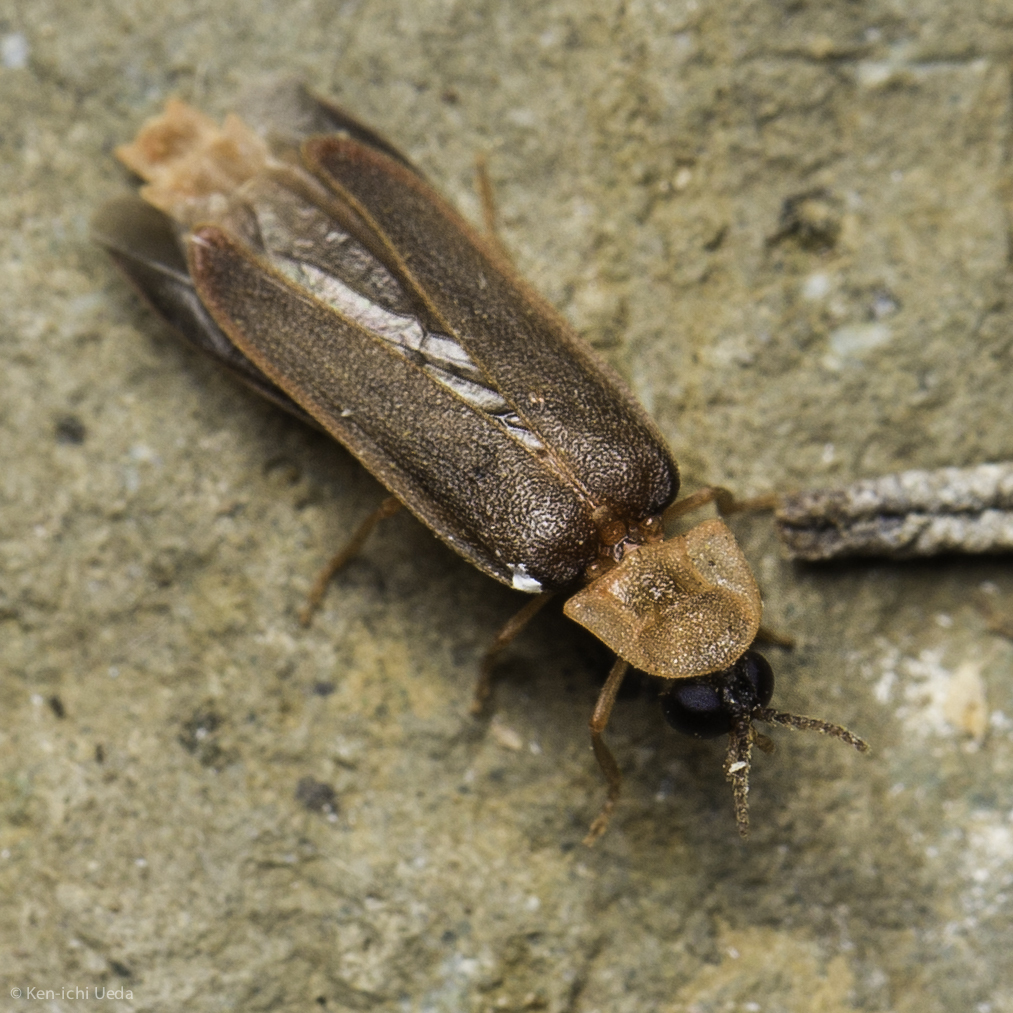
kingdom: Animalia
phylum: Arthropoda
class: Insecta
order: Coleoptera
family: Lampyridae
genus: Microphotus
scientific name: Microphotus angustus
